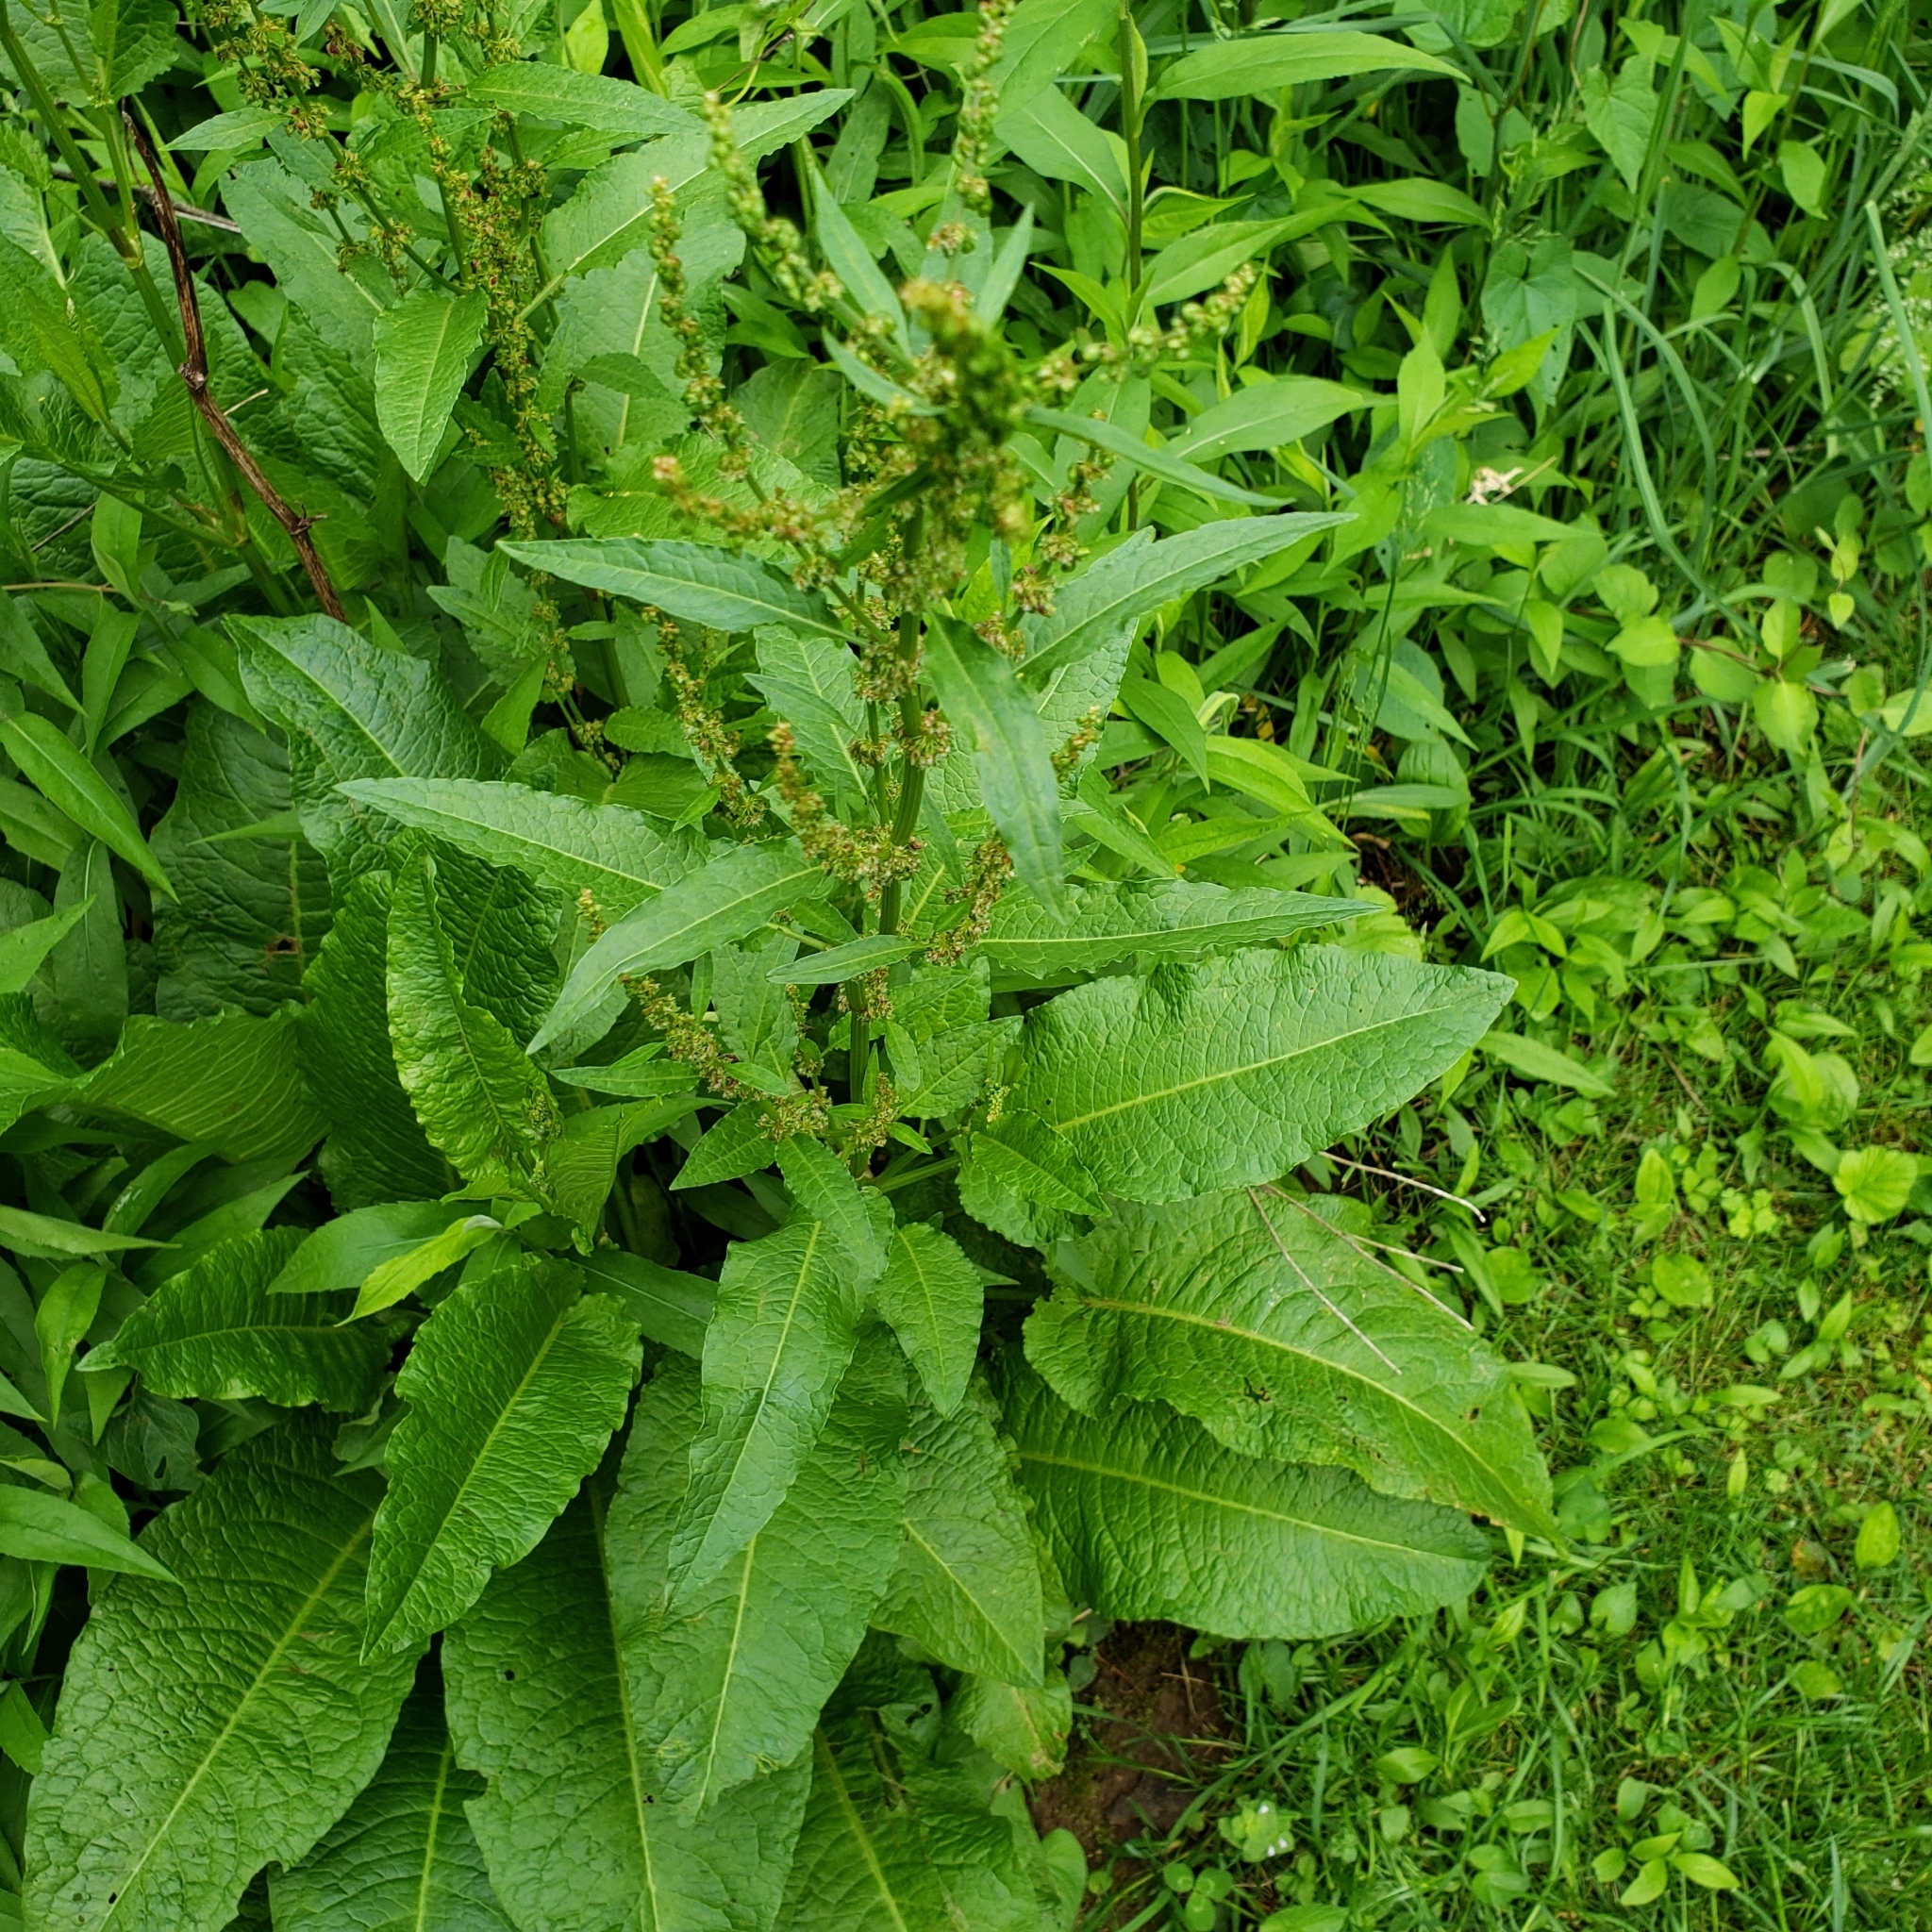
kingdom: Plantae
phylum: Tracheophyta
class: Magnoliopsida
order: Caryophyllales
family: Polygonaceae
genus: Rumex
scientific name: Rumex crispus
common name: Curled dock
